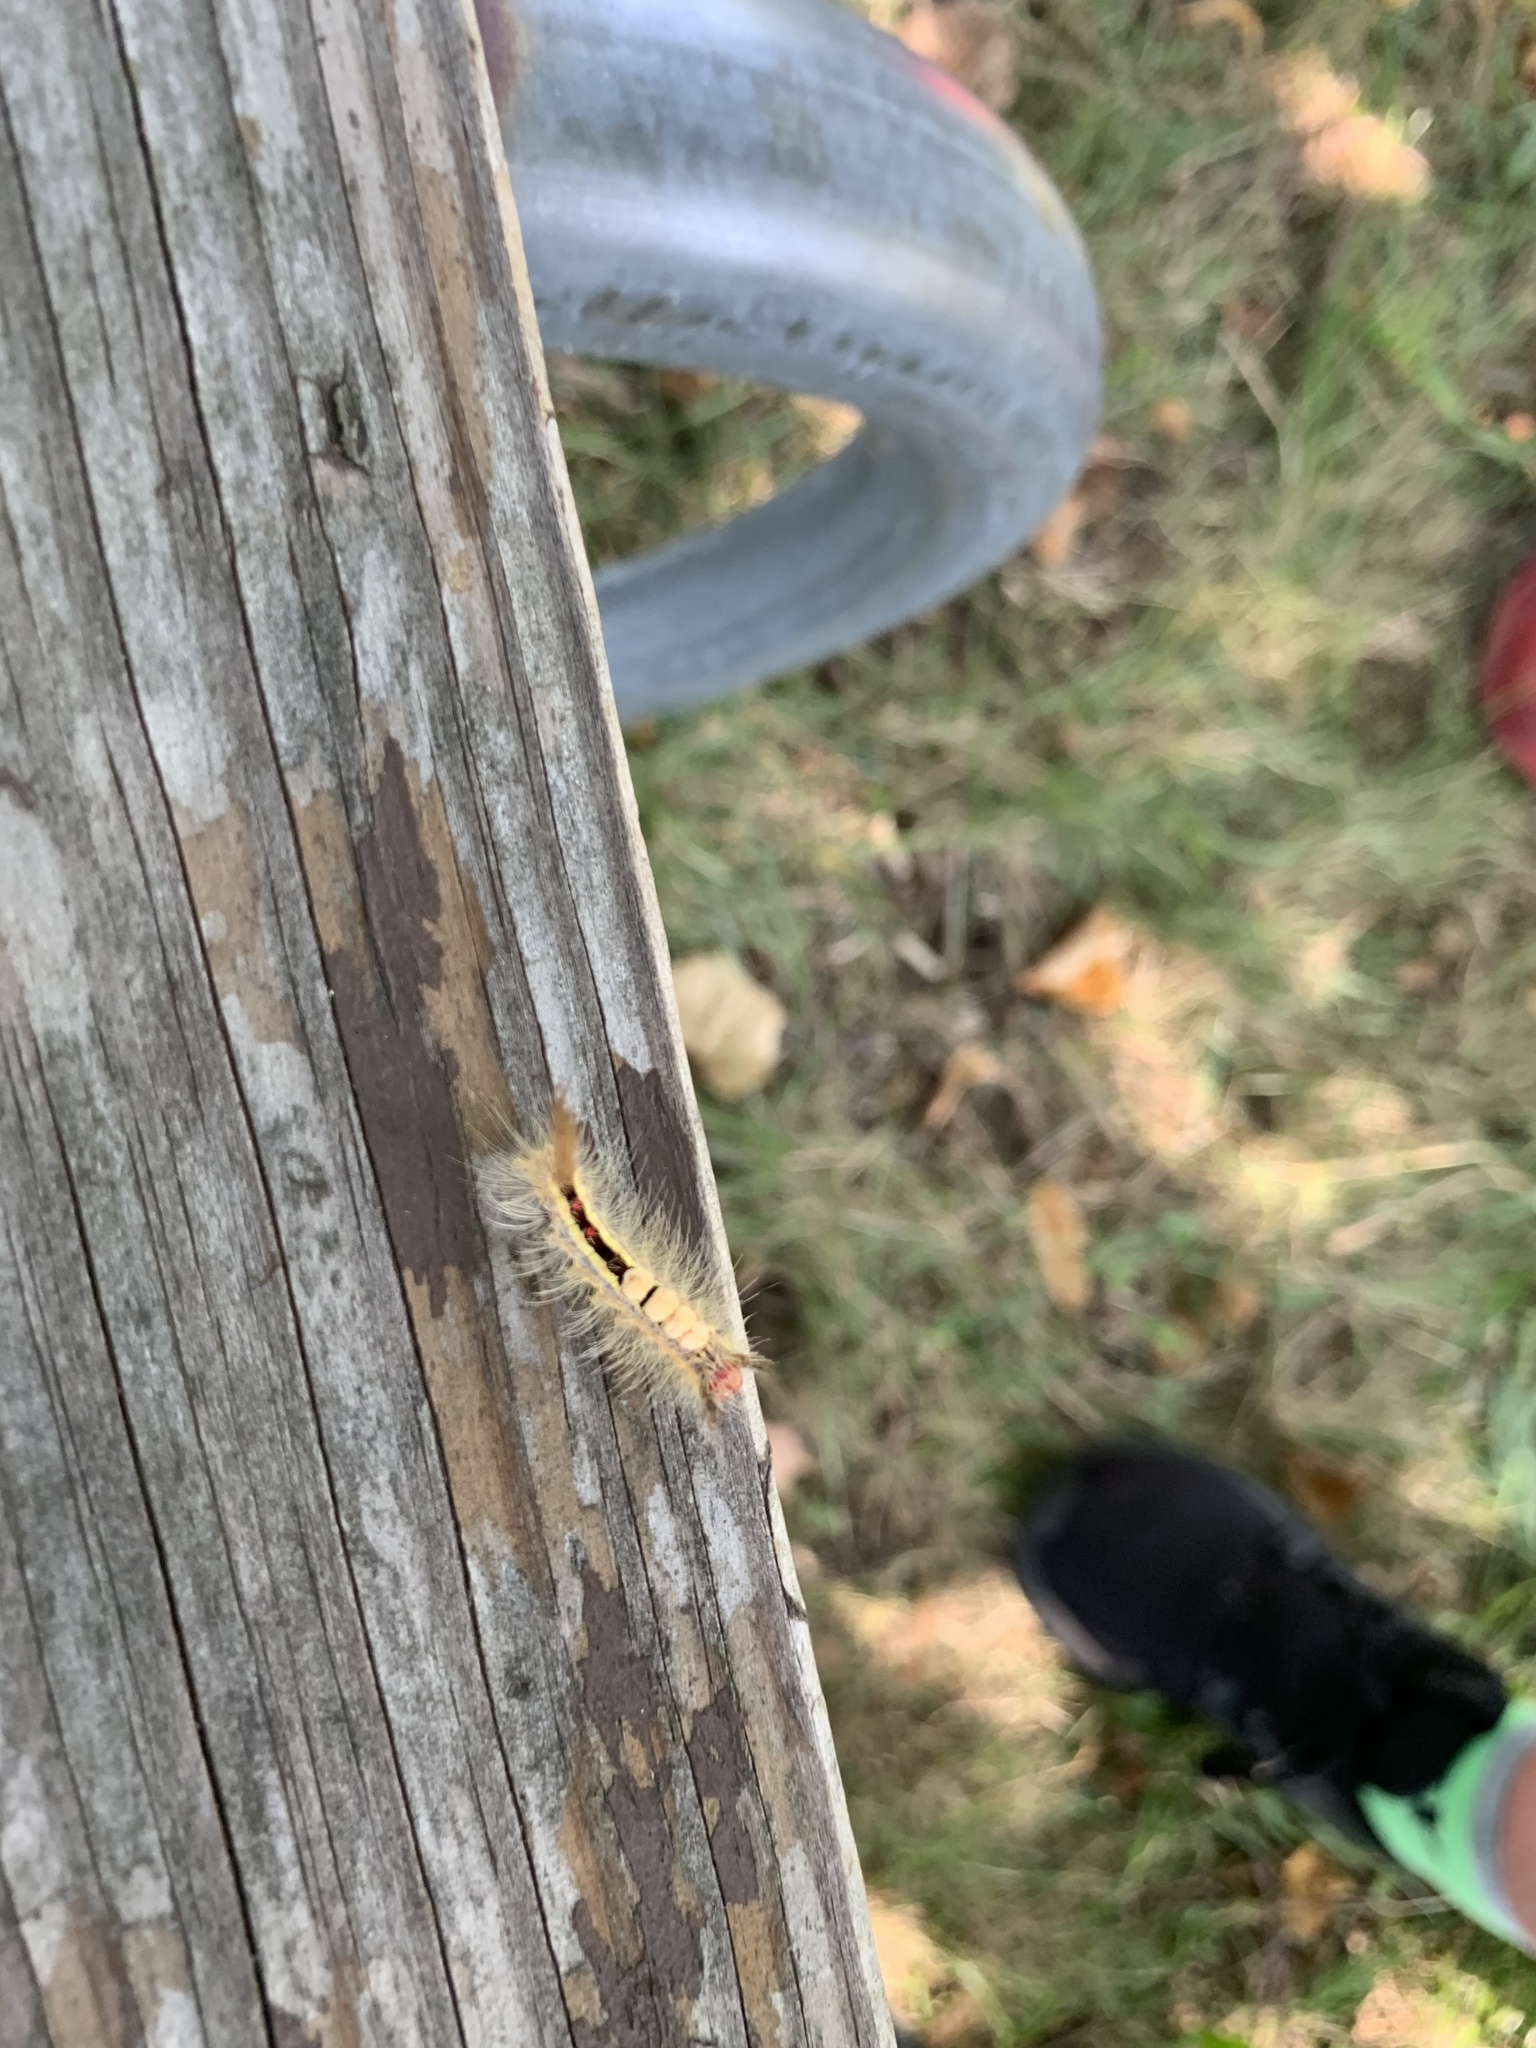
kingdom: Animalia
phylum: Arthropoda
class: Insecta
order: Lepidoptera
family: Erebidae
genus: Orgyia
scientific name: Orgyia leucostigma
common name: White-marked tussock moth
